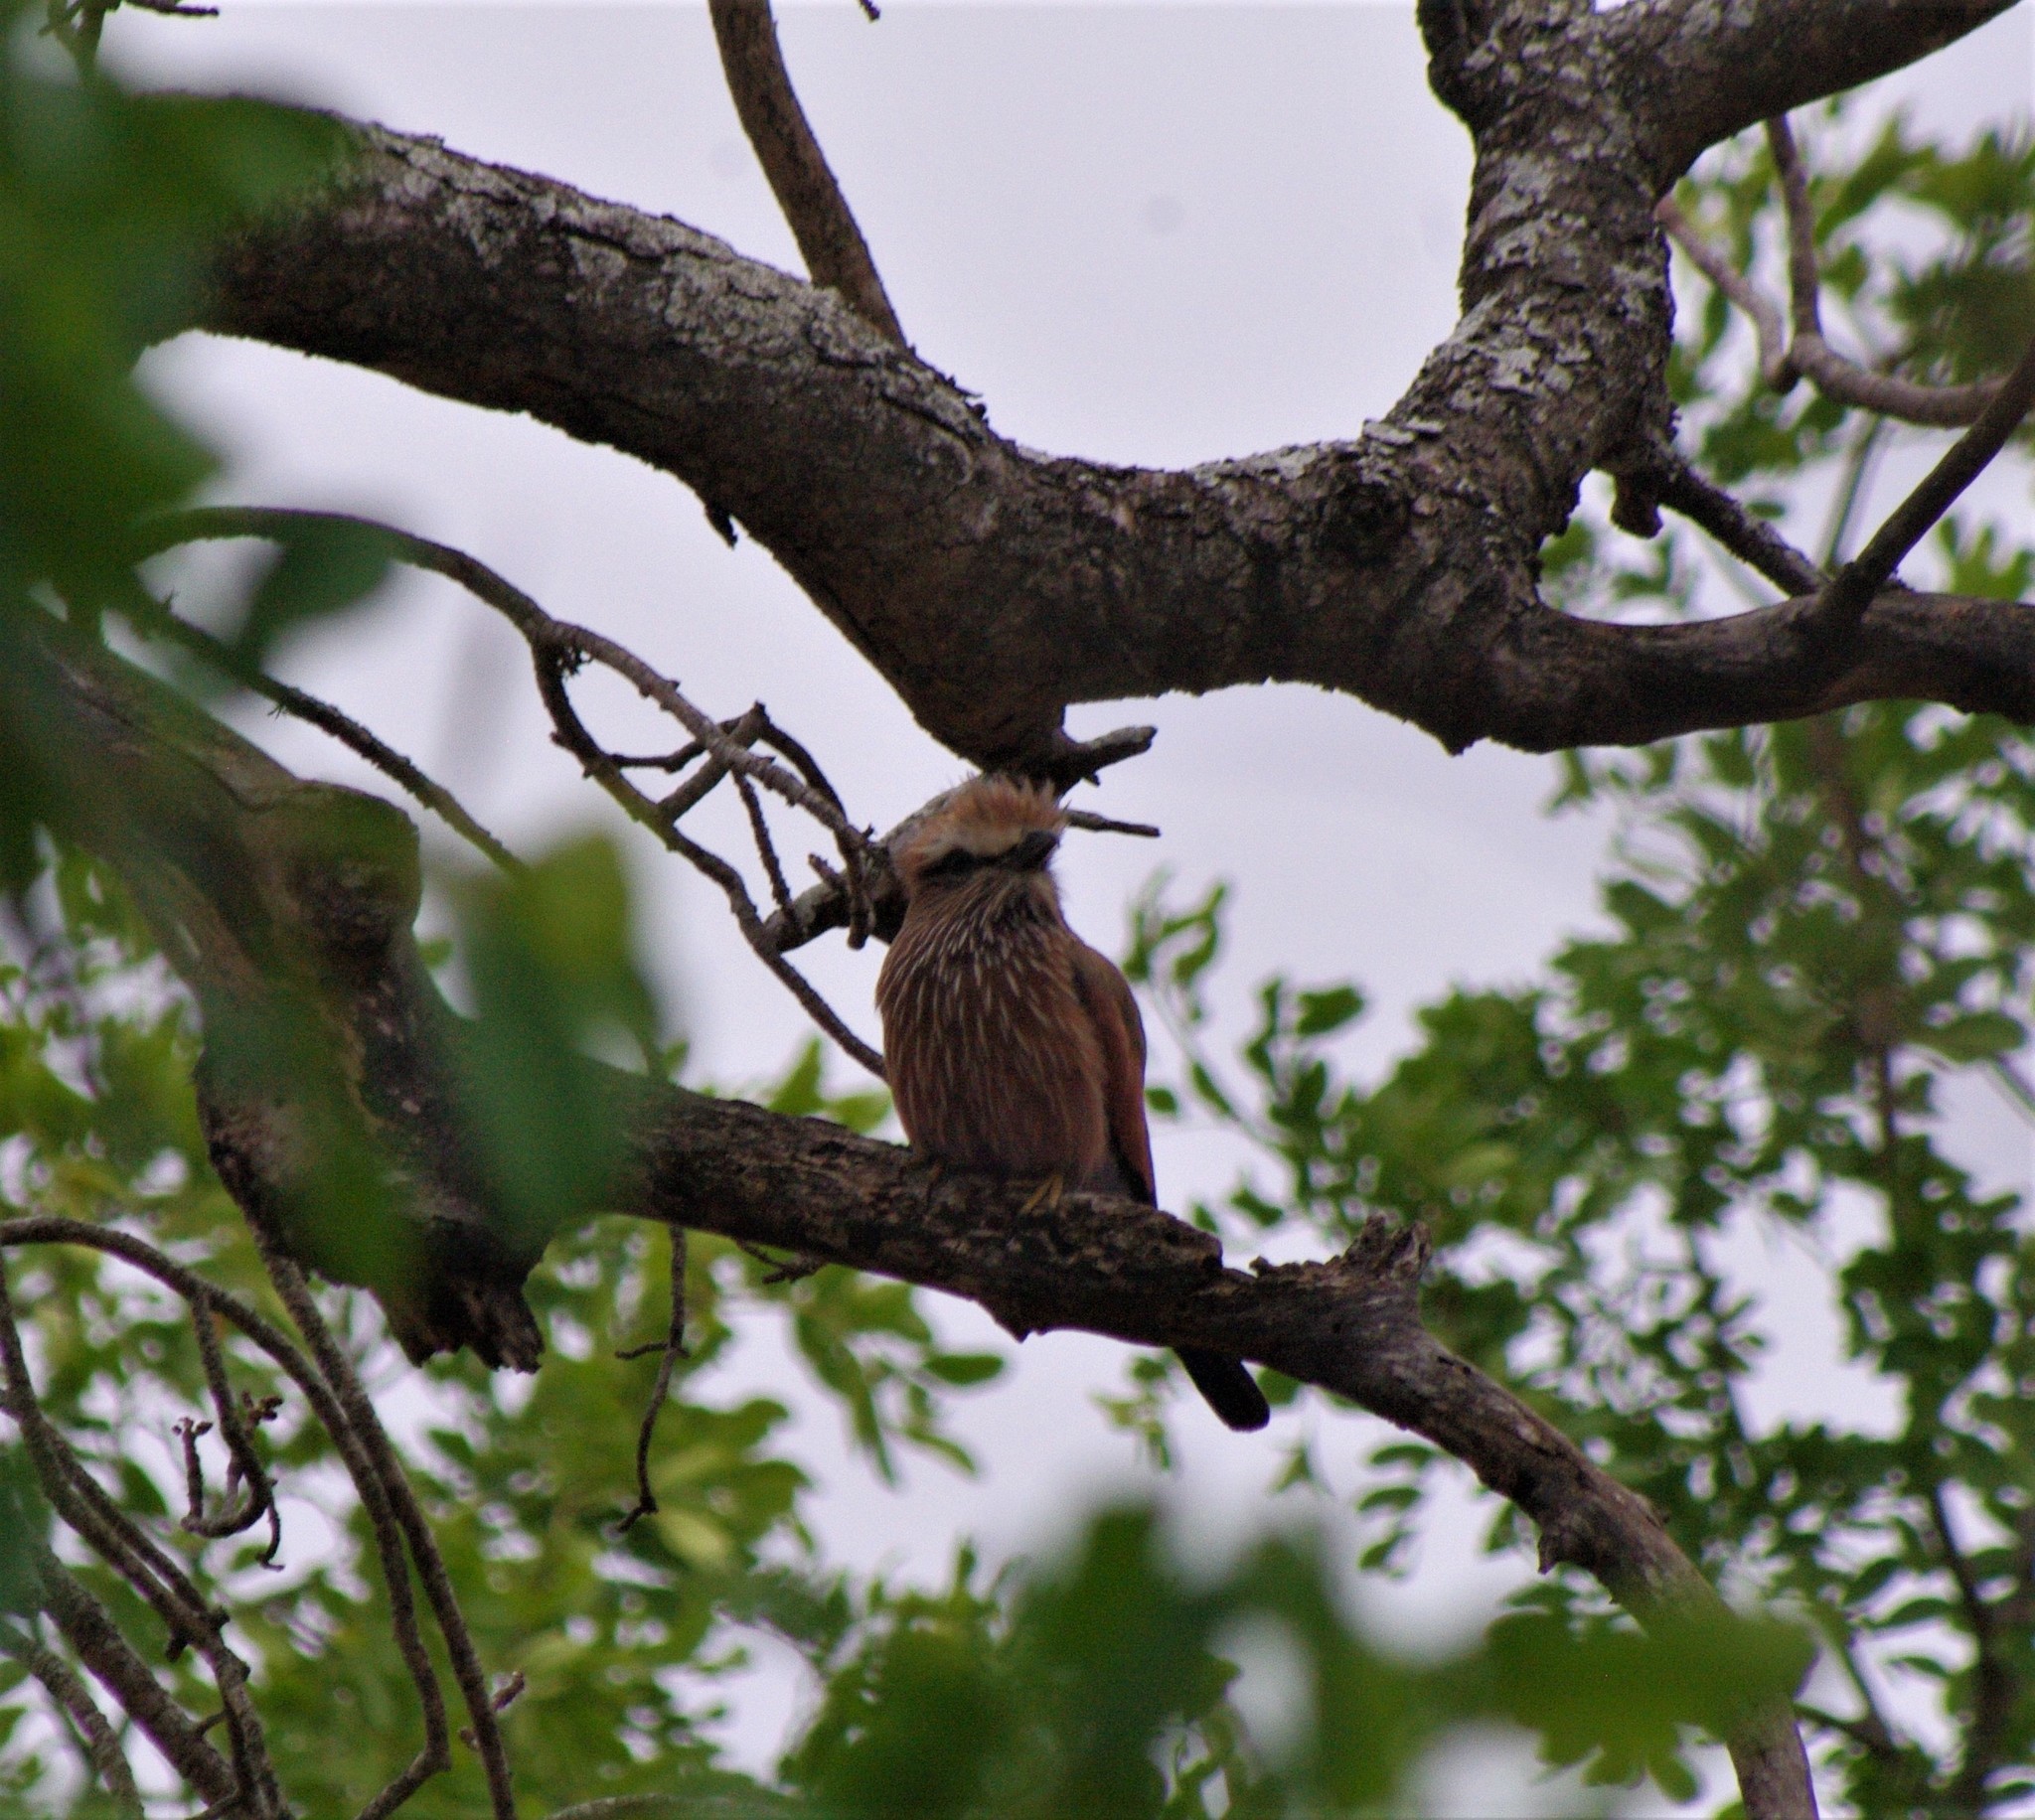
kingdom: Animalia
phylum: Chordata
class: Aves
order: Coraciiformes
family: Coraciidae
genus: Coracias
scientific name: Coracias naevius
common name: Purple roller
